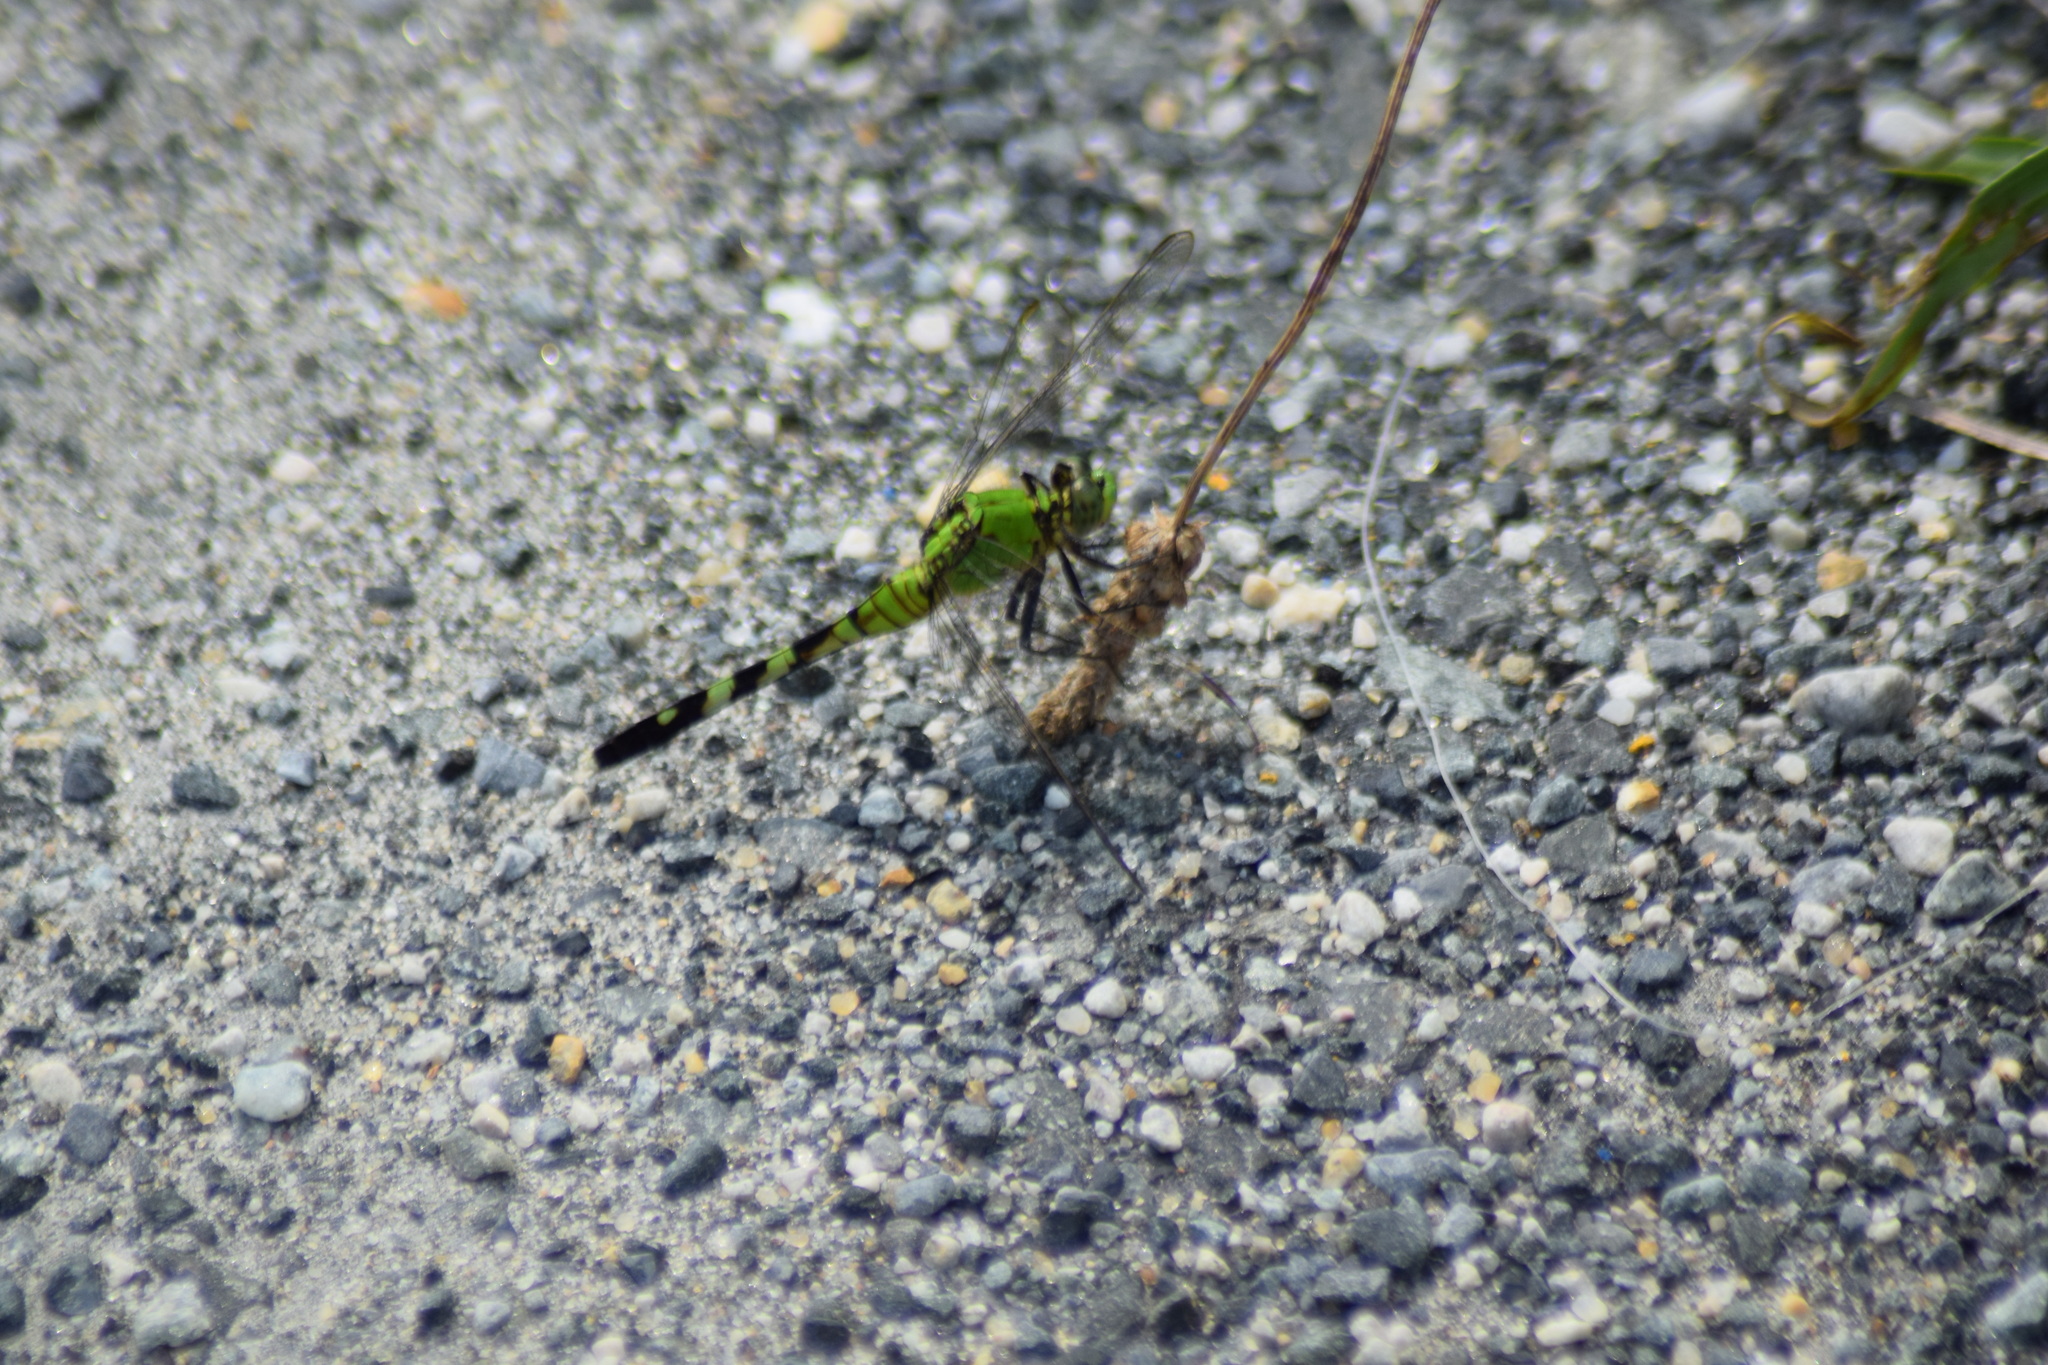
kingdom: Animalia
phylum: Arthropoda
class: Insecta
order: Odonata
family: Libellulidae
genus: Erythemis
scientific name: Erythemis simplicicollis
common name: Eastern pondhawk
